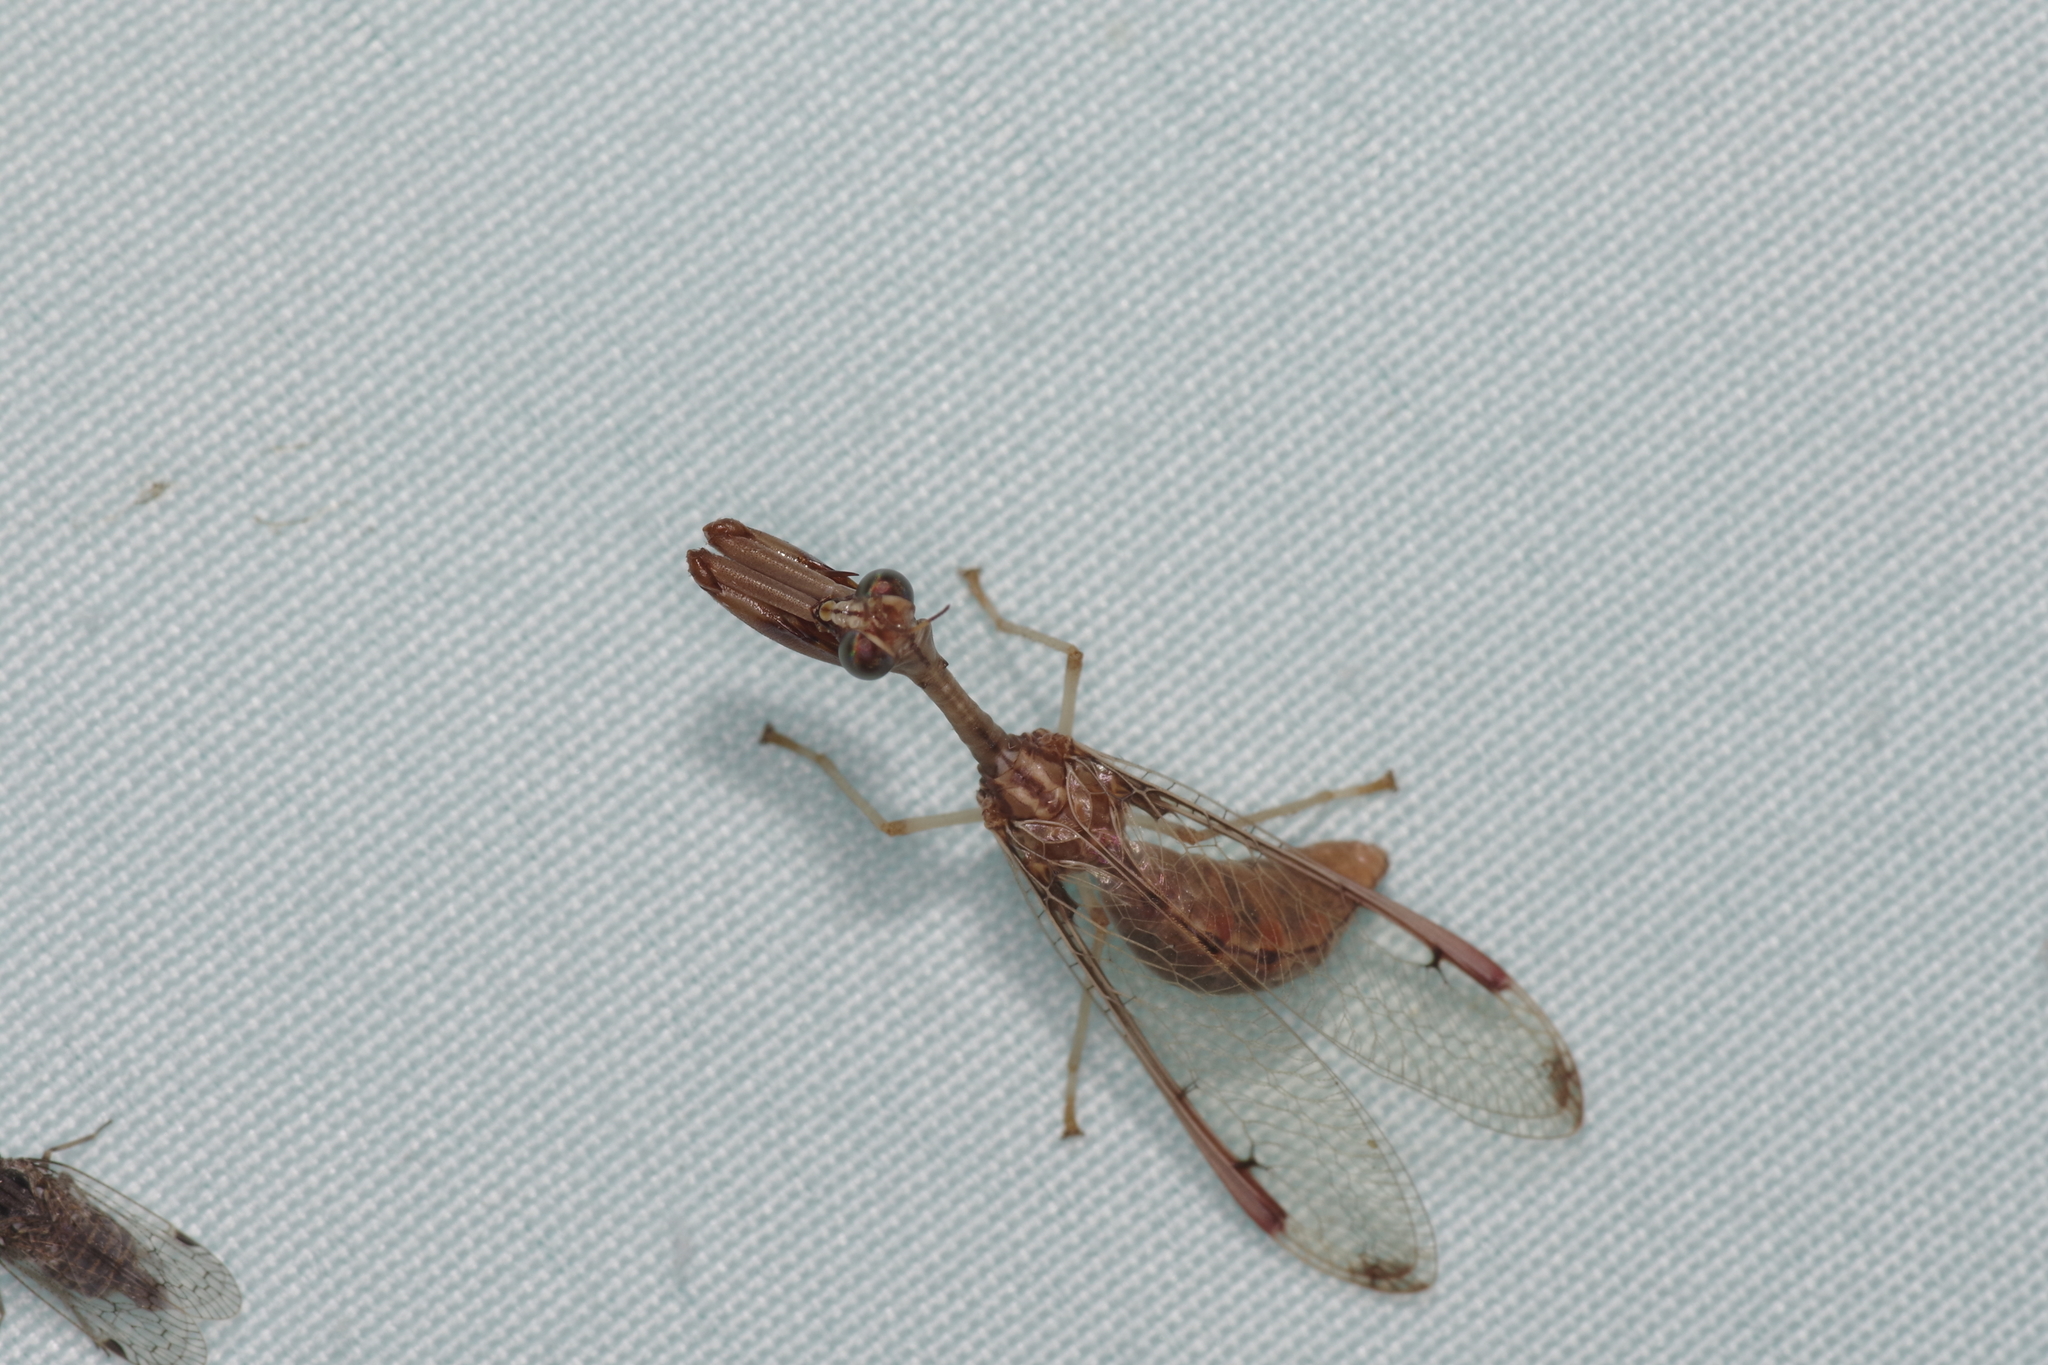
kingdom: Animalia
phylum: Arthropoda
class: Insecta
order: Neuroptera
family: Mantispidae
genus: Dicromantispa
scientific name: Dicromantispa interrupta
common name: Four-spotted mantidfly
